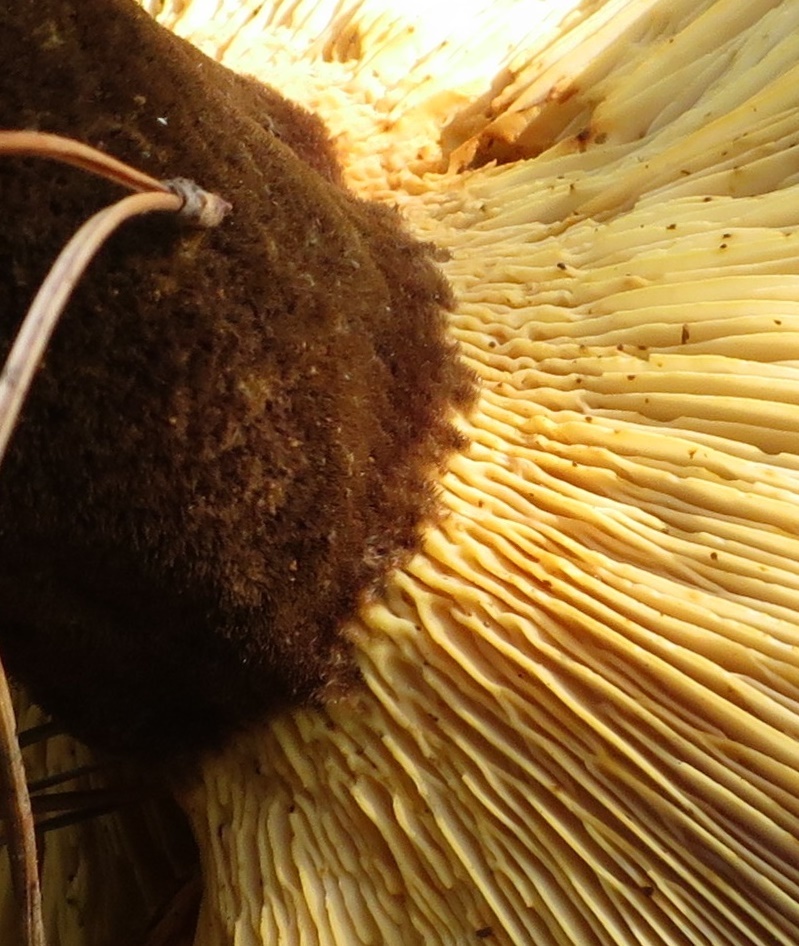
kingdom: Fungi
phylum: Basidiomycota
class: Agaricomycetes
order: Boletales
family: Tapinellaceae
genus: Tapinella
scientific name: Tapinella atrotomentosa
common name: Velvet rollrim
